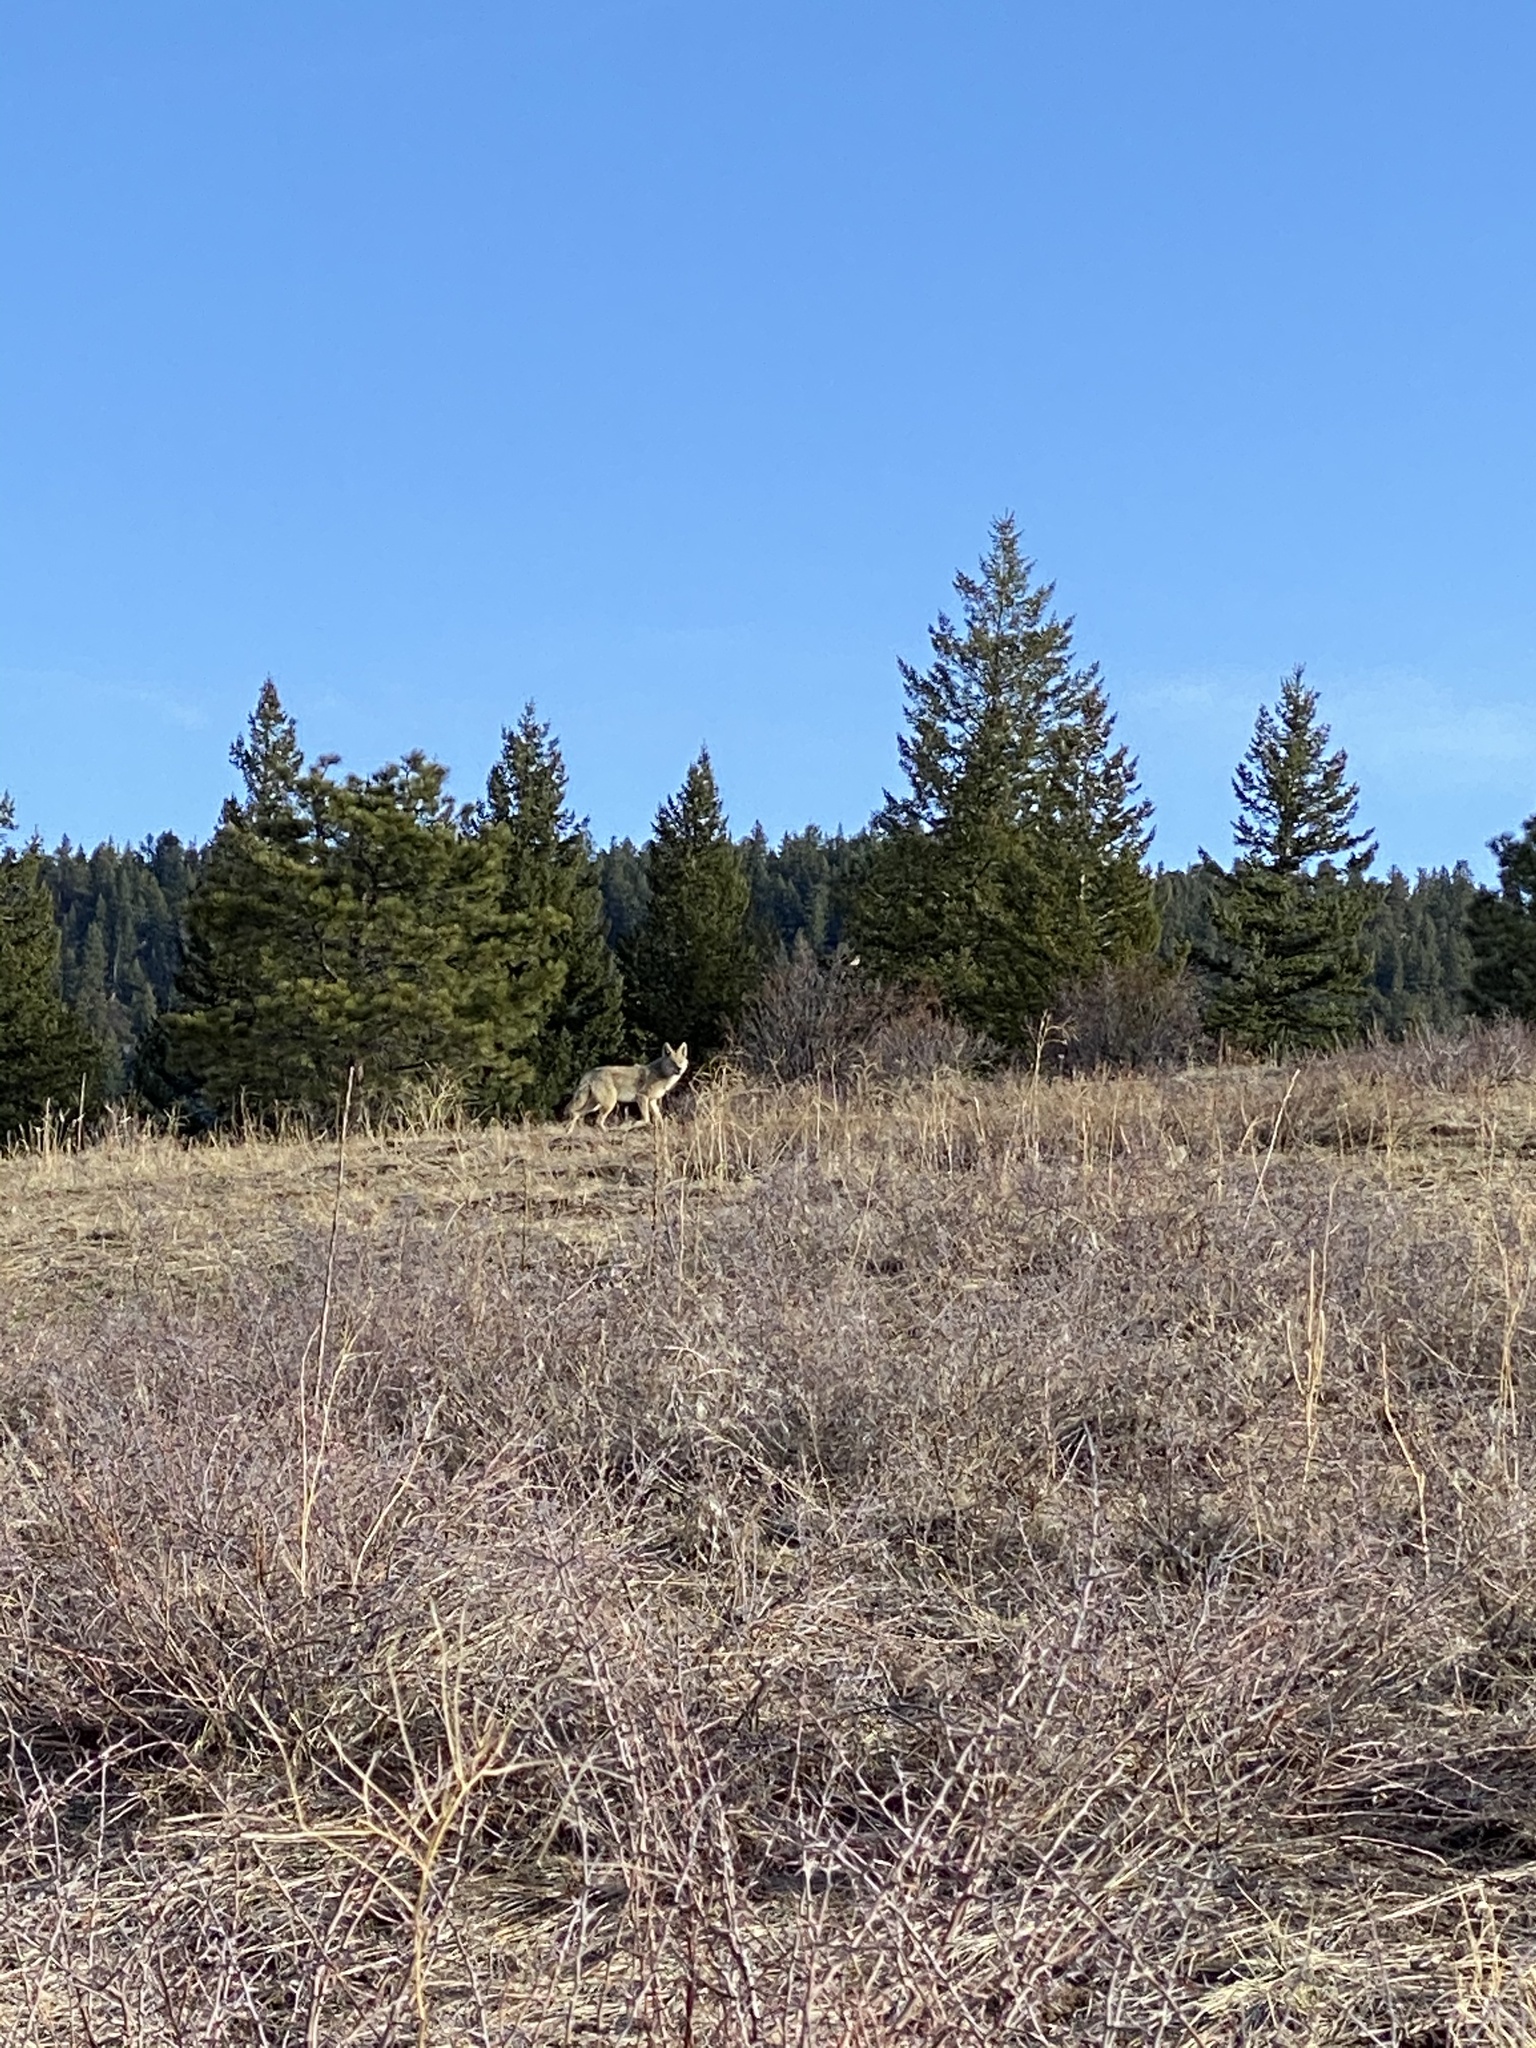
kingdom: Animalia
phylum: Chordata
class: Mammalia
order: Carnivora
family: Canidae
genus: Canis
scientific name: Canis latrans
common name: Coyote
